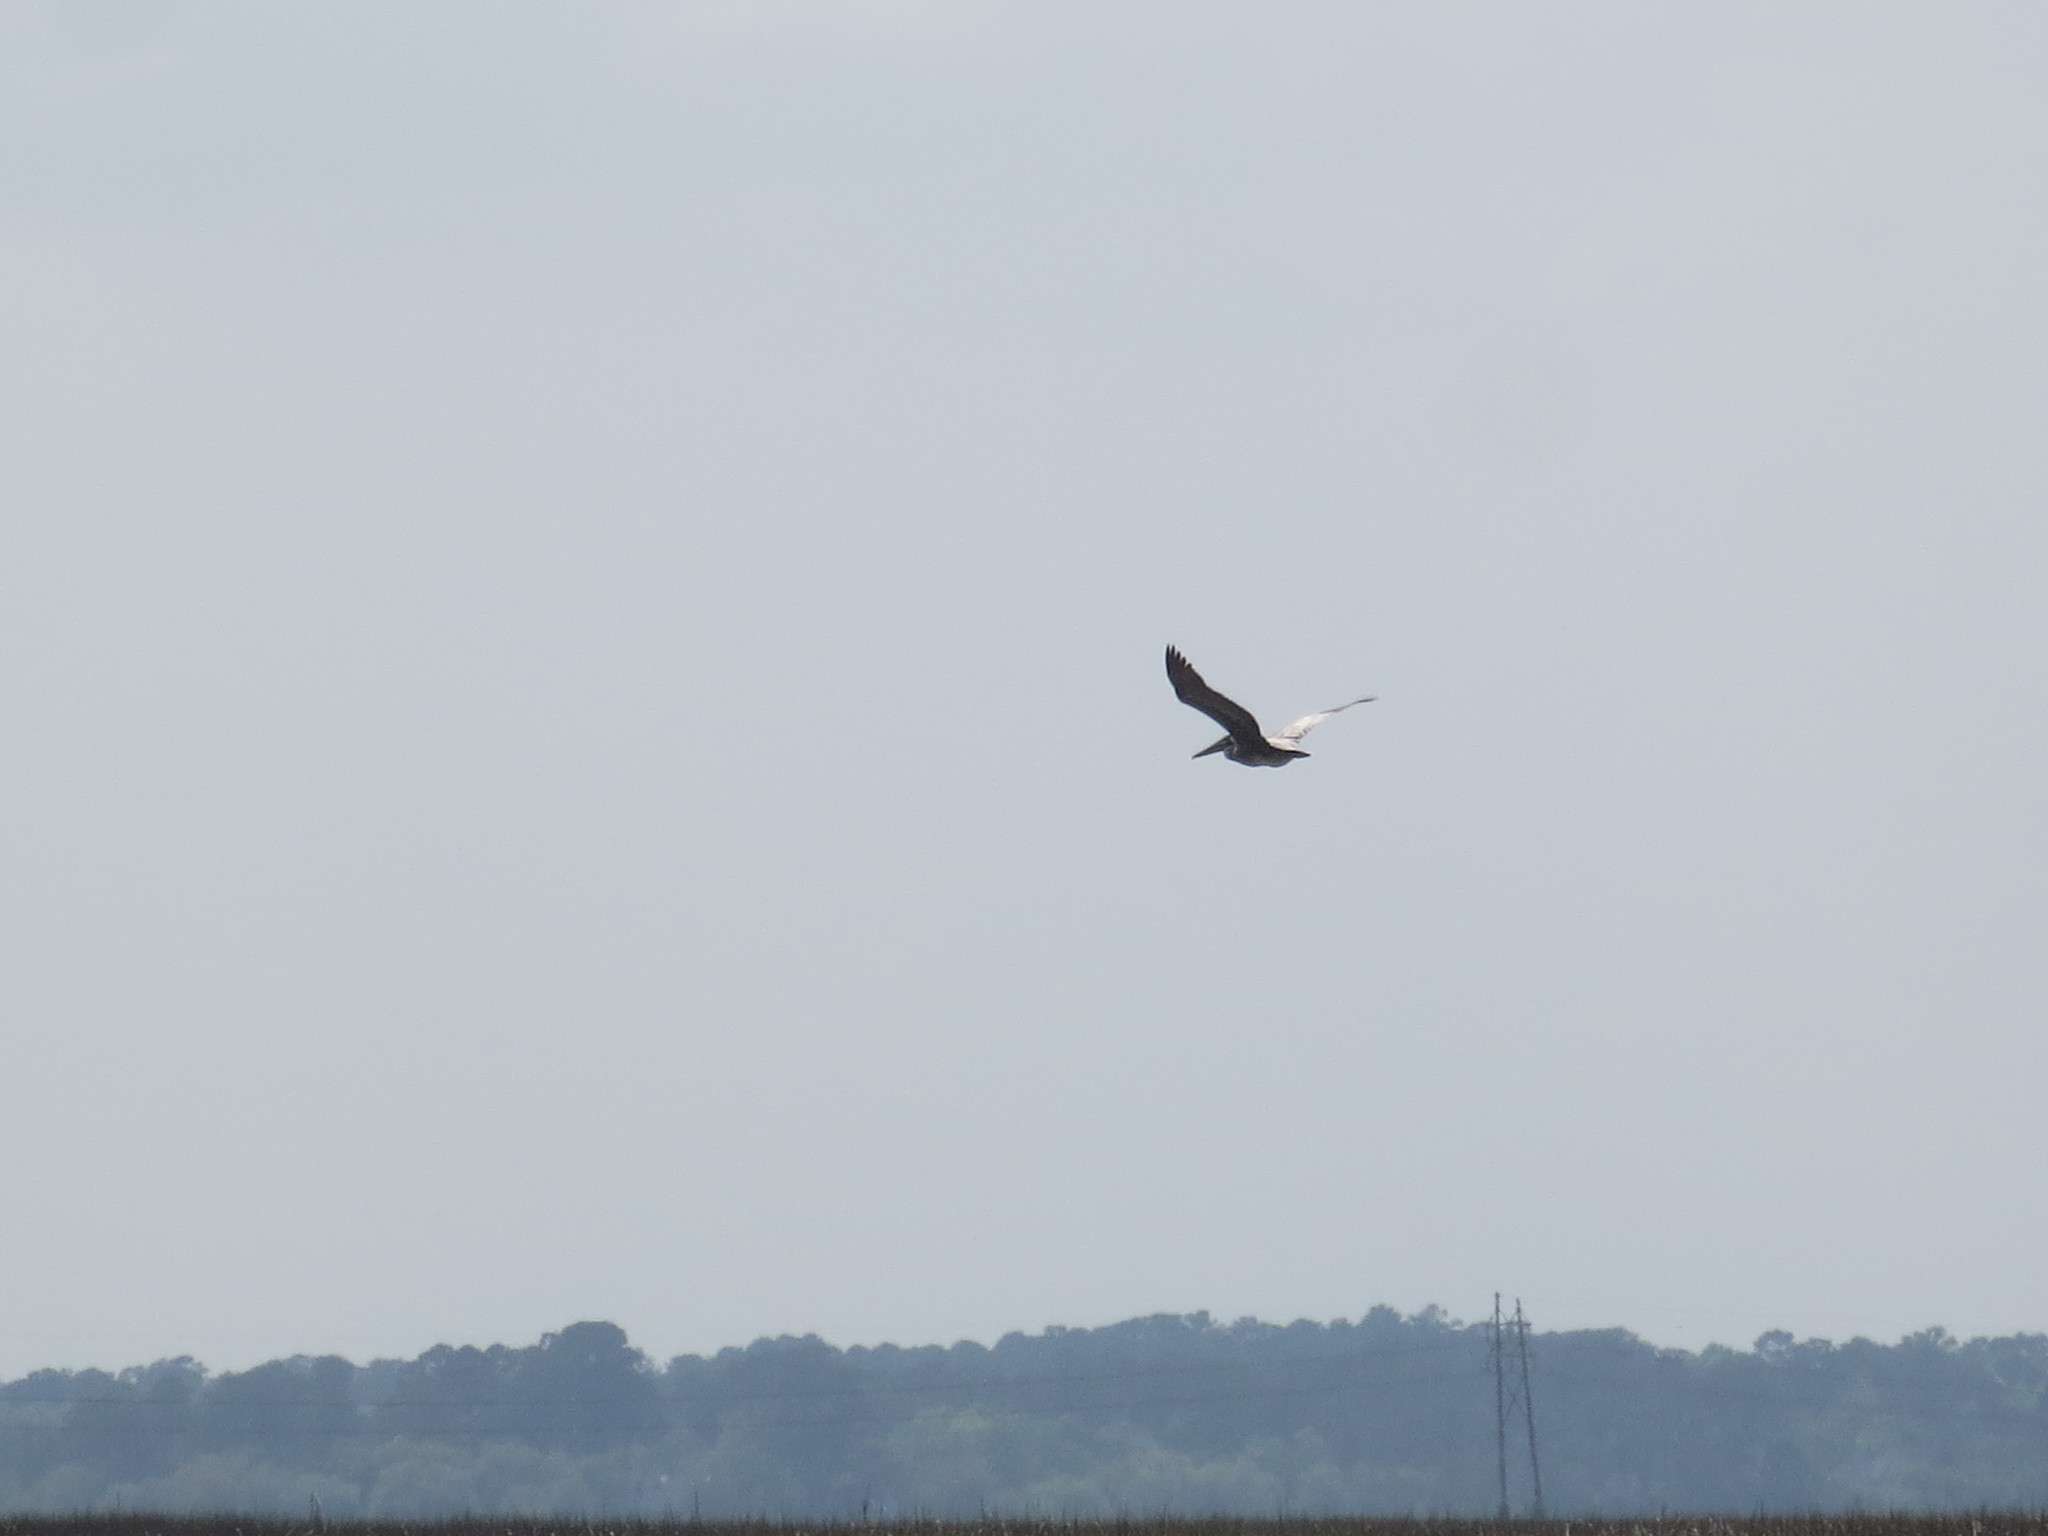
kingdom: Animalia
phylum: Chordata
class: Aves
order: Pelecaniformes
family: Pelecanidae
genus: Pelecanus
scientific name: Pelecanus occidentalis
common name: Brown pelican
